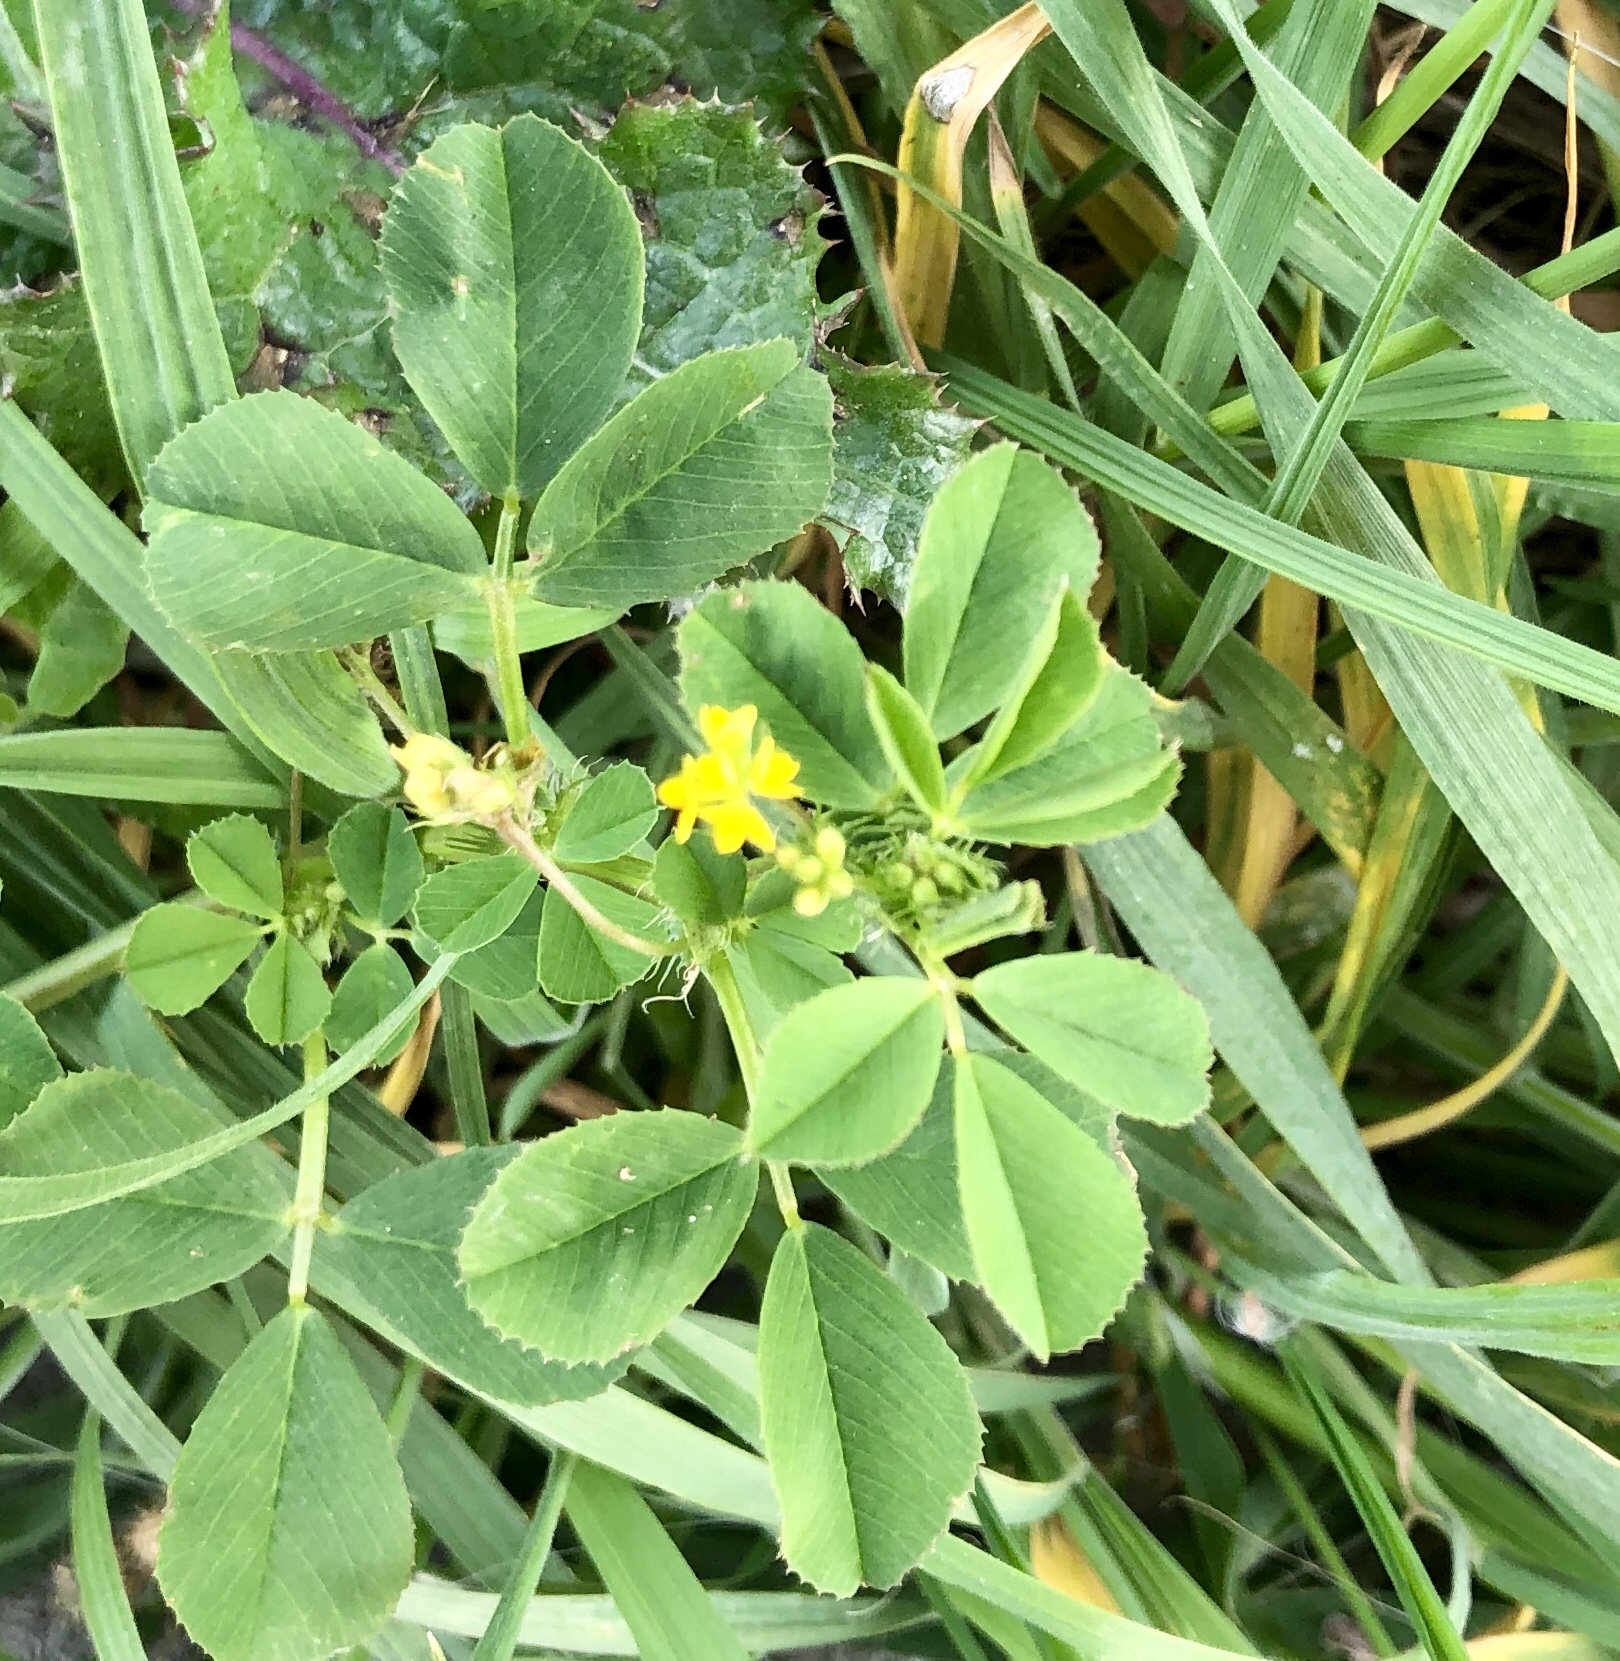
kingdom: Plantae
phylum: Tracheophyta
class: Magnoliopsida
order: Fabales
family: Fabaceae
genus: Medicago
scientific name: Medicago polymorpha
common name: Burclover
